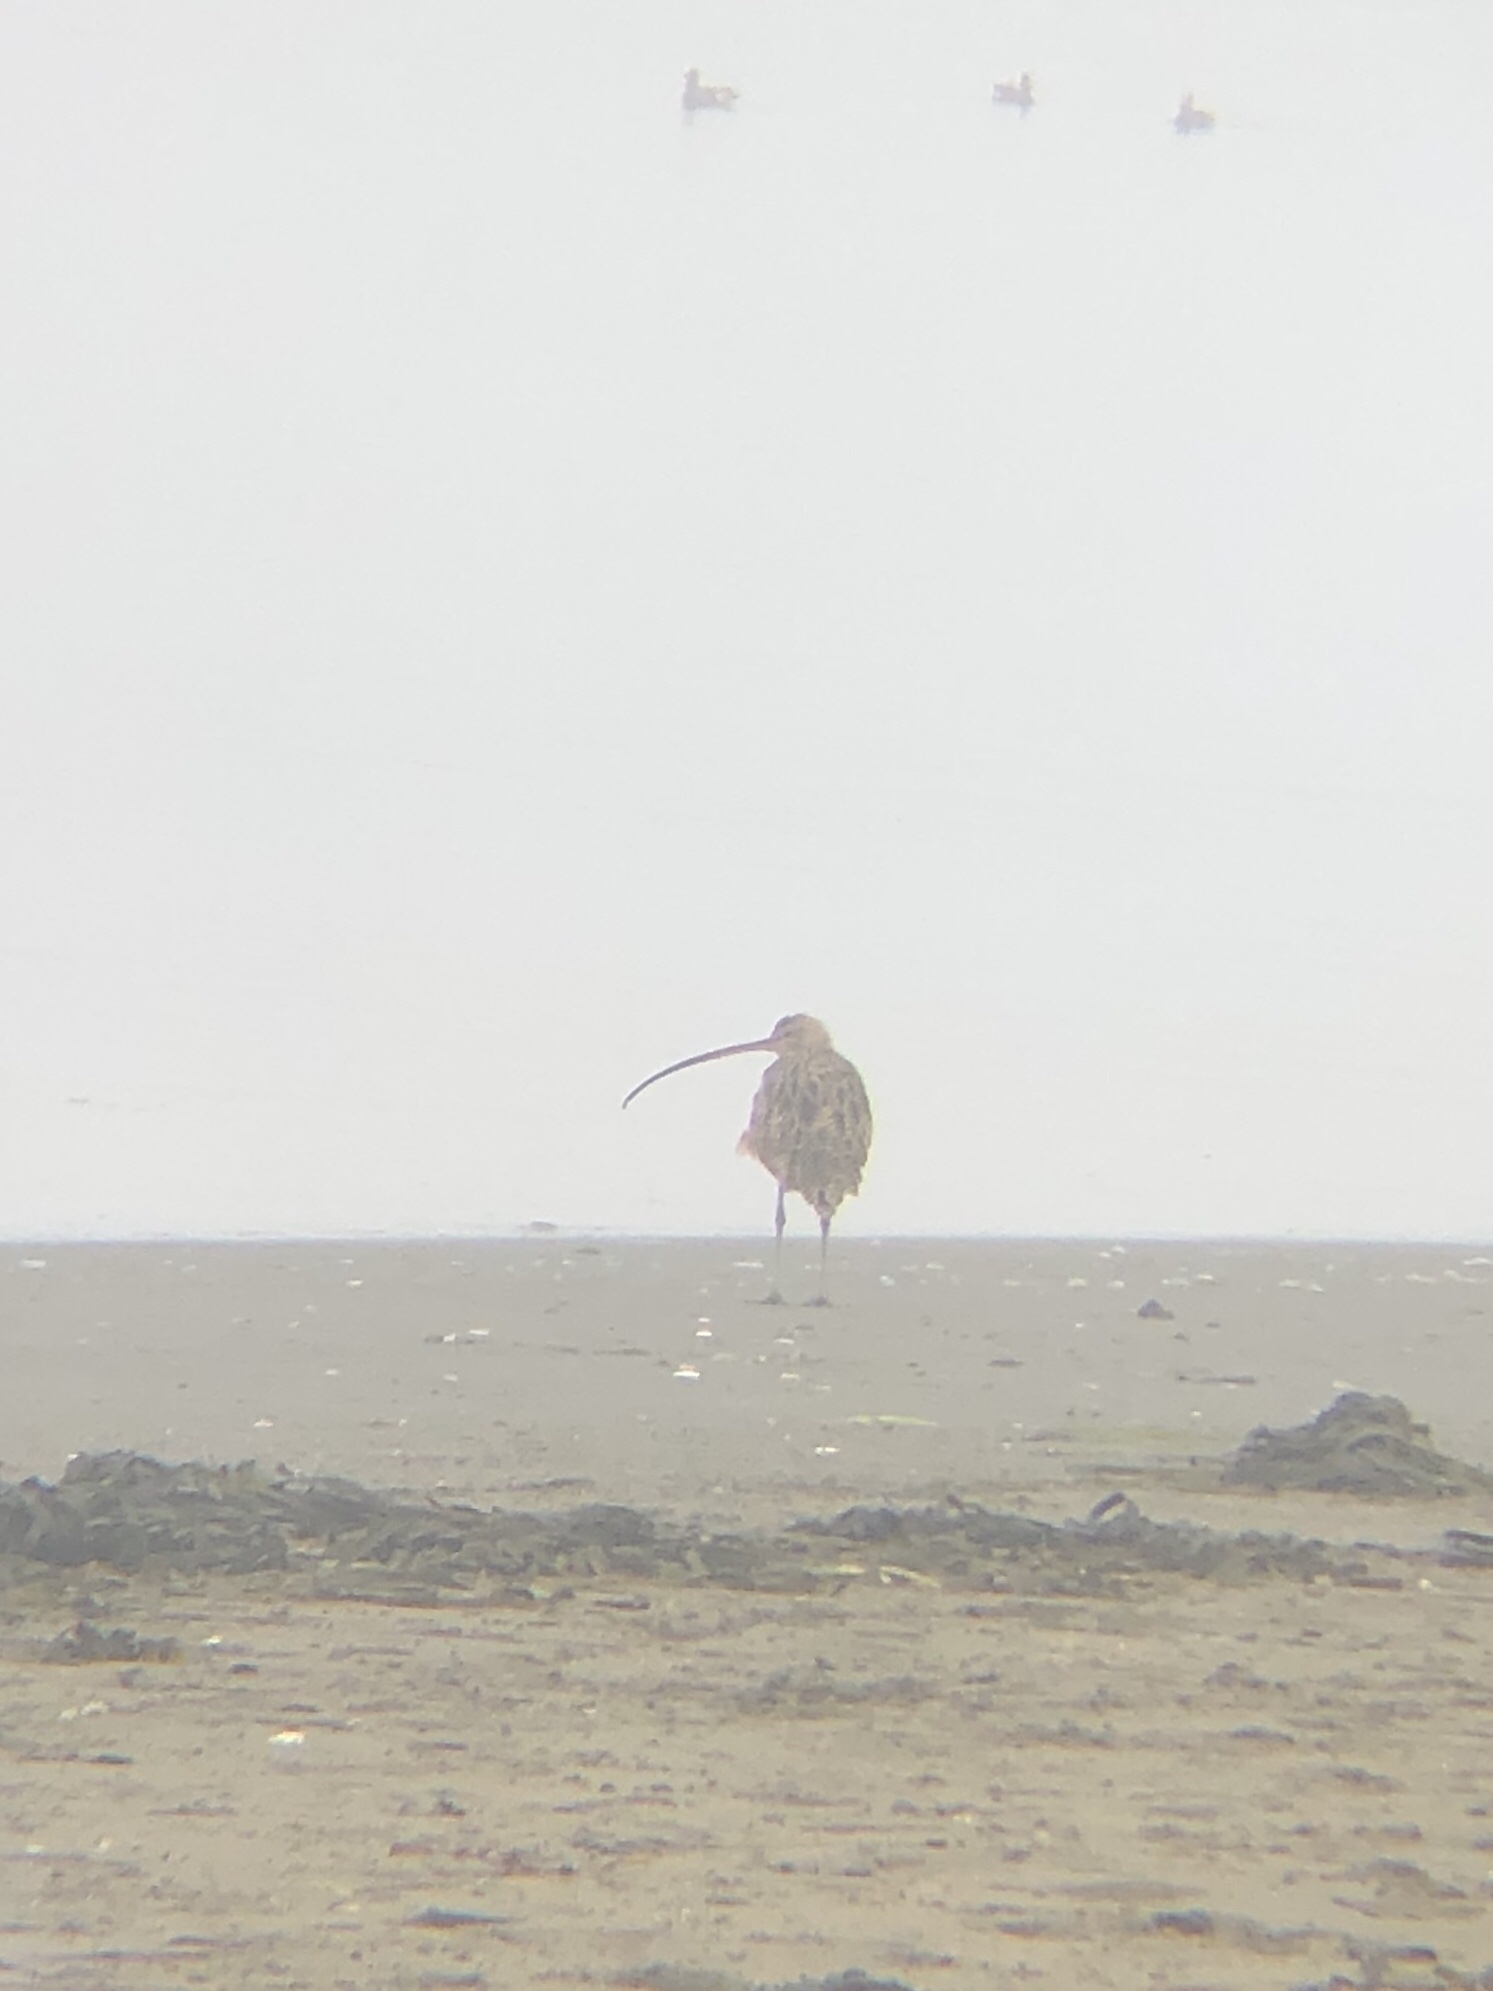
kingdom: Animalia
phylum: Chordata
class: Aves
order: Charadriiformes
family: Scolopacidae
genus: Numenius
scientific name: Numenius americanus
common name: Long-billed curlew
